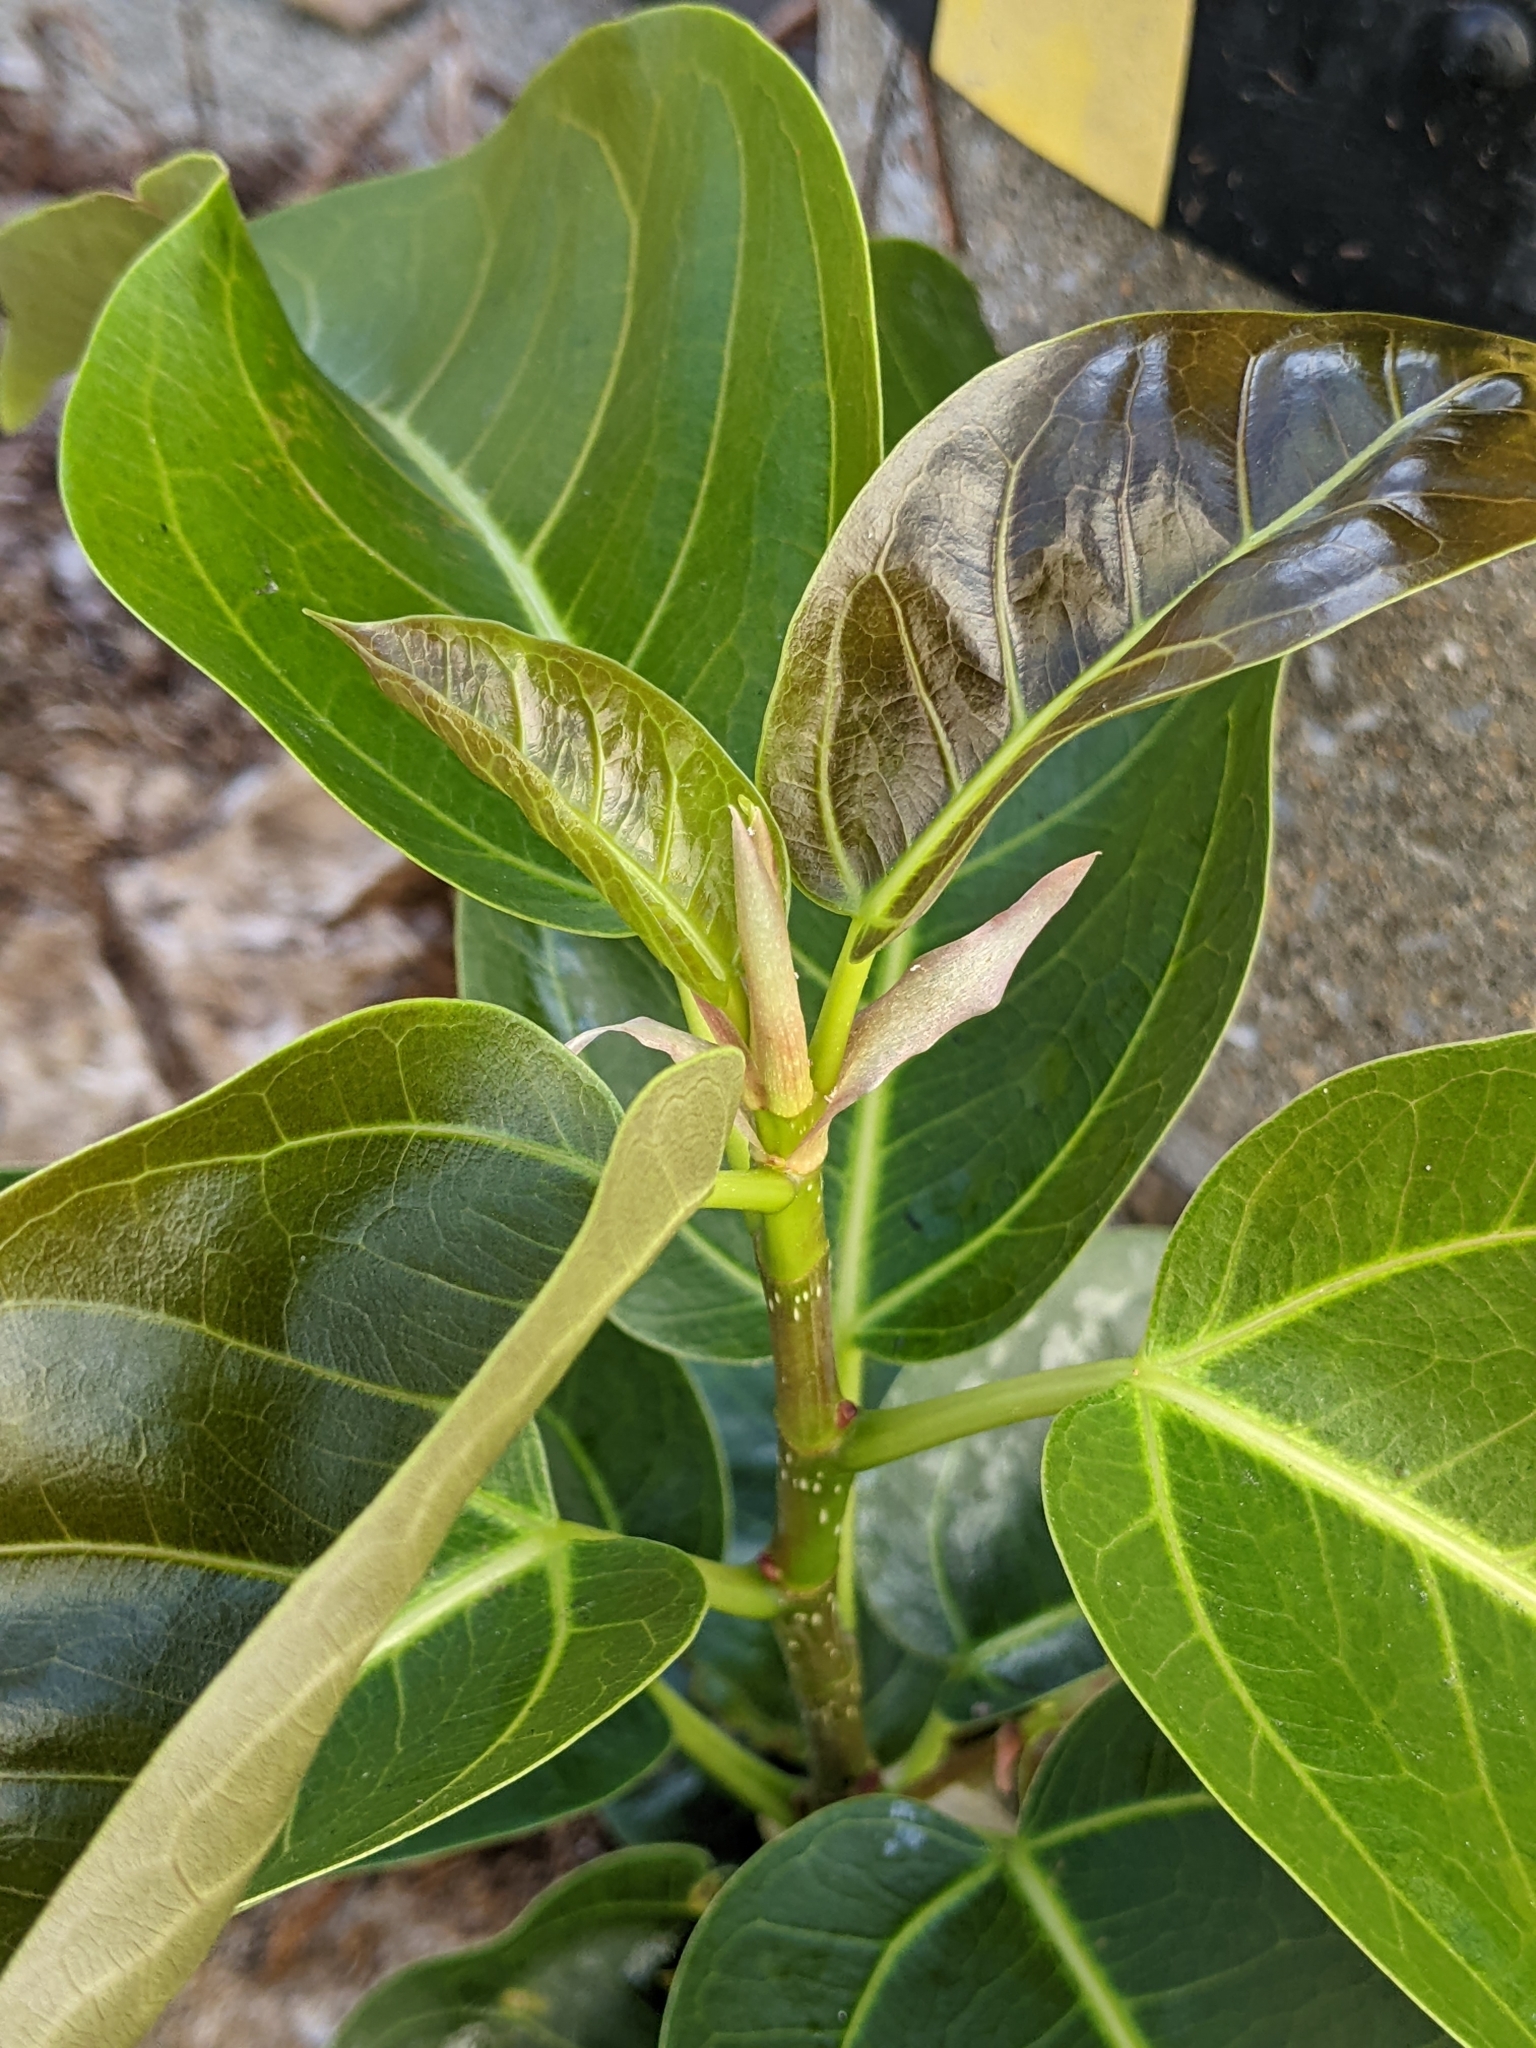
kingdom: Plantae
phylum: Tracheophyta
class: Magnoliopsida
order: Rosales
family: Moraceae
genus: Ficus
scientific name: Ficus subpisocarpa
